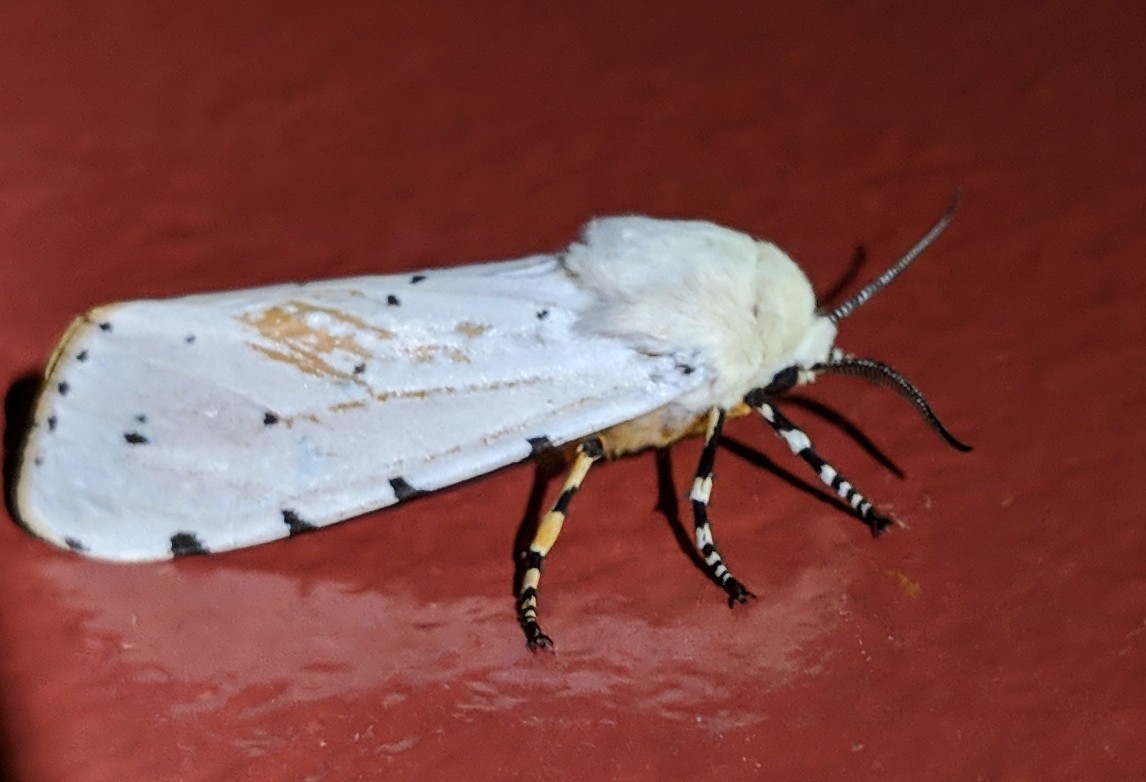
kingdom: Animalia
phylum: Arthropoda
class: Insecta
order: Lepidoptera
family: Erebidae
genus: Estigmene
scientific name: Estigmene acrea
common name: Salt marsh moth
